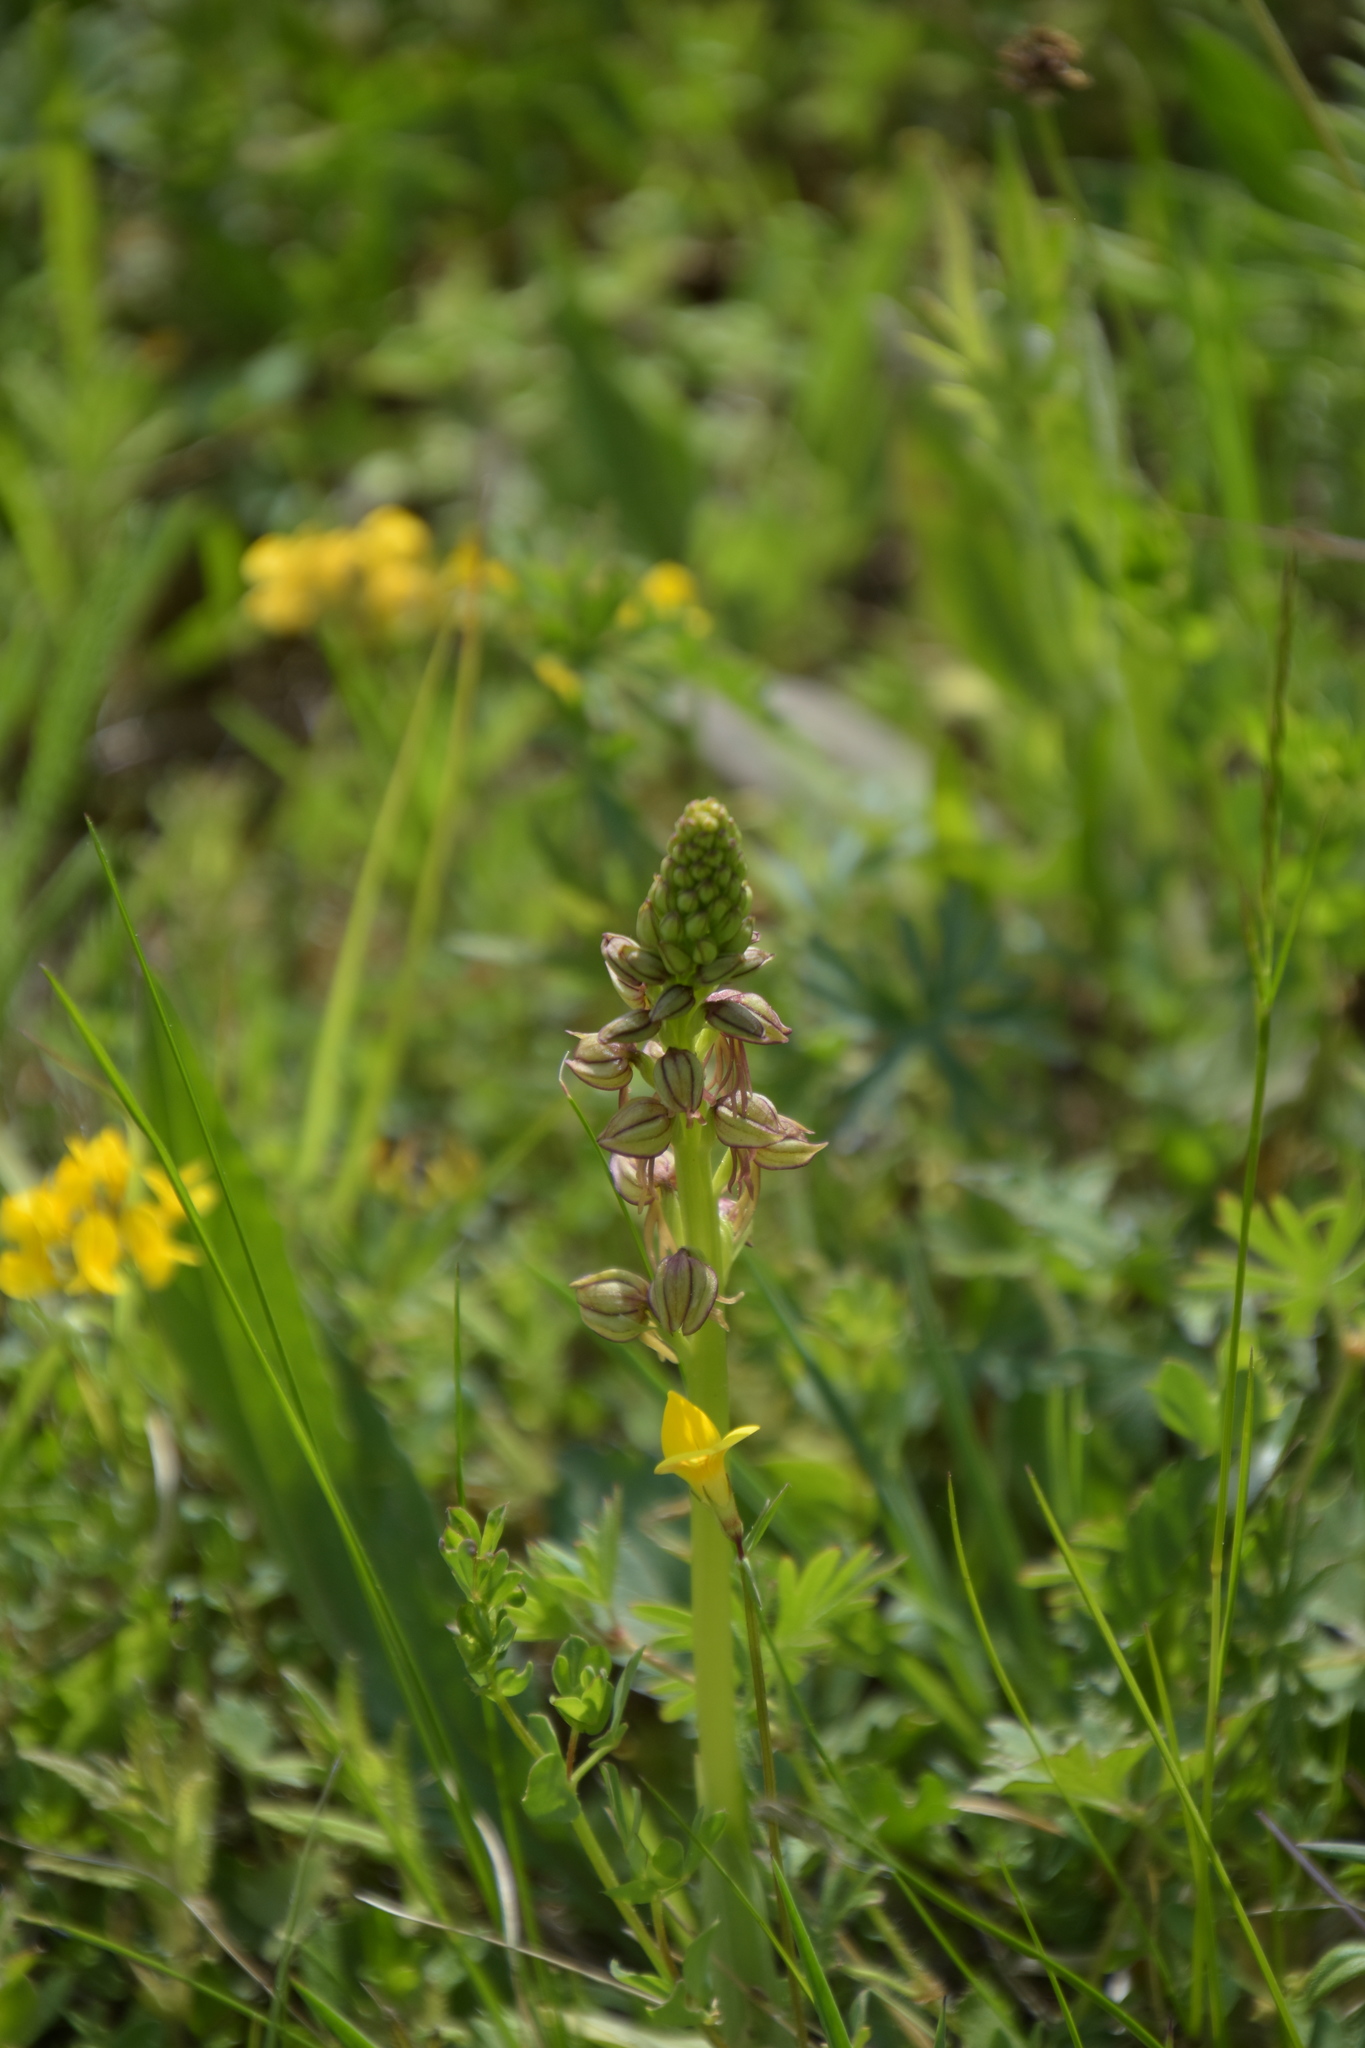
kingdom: Plantae
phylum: Tracheophyta
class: Liliopsida
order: Asparagales
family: Orchidaceae
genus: Orchis
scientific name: Orchis anthropophora
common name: Man orchid
